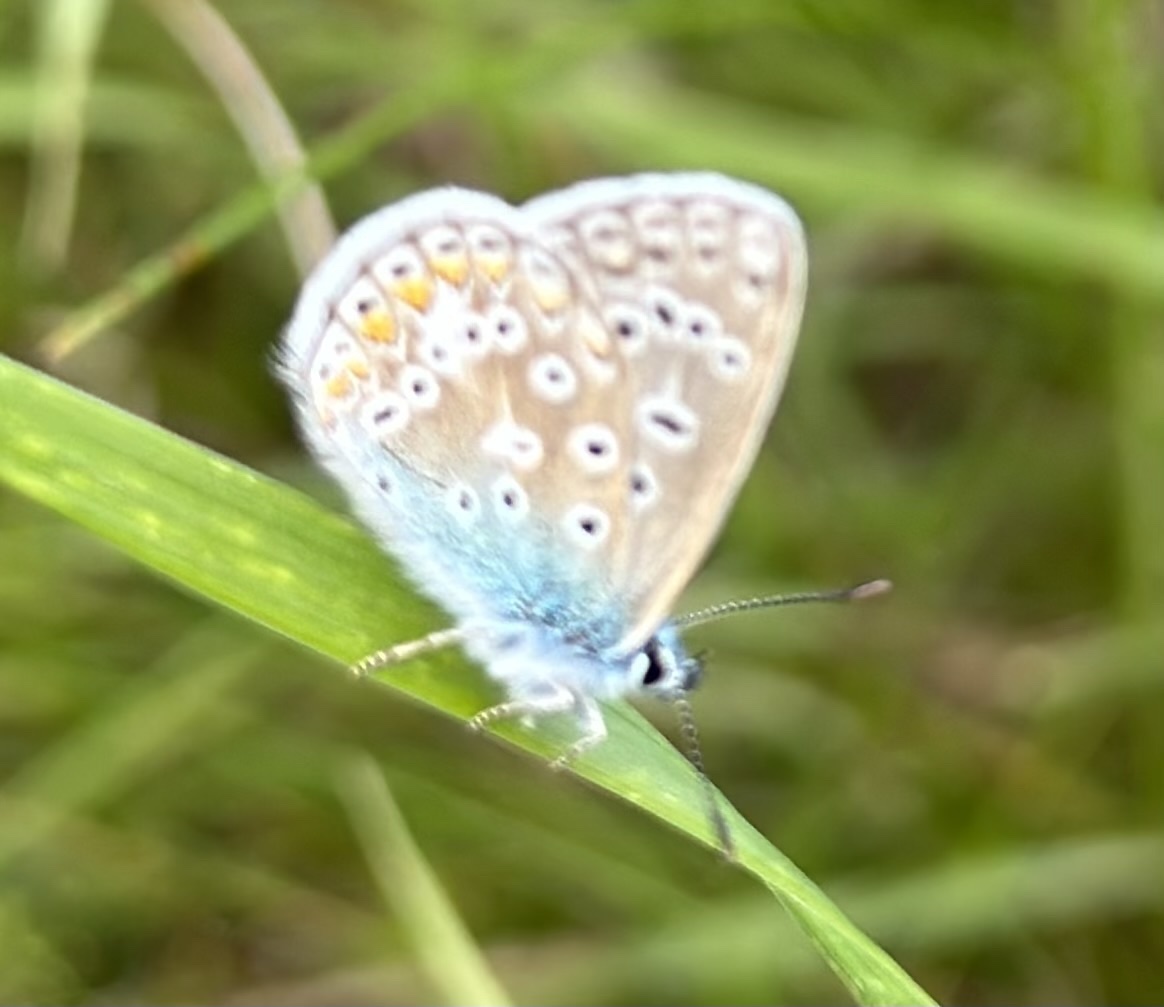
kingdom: Animalia
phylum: Arthropoda
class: Insecta
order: Lepidoptera
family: Lycaenidae
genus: Polyommatus
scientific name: Polyommatus icarus
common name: Common blue
